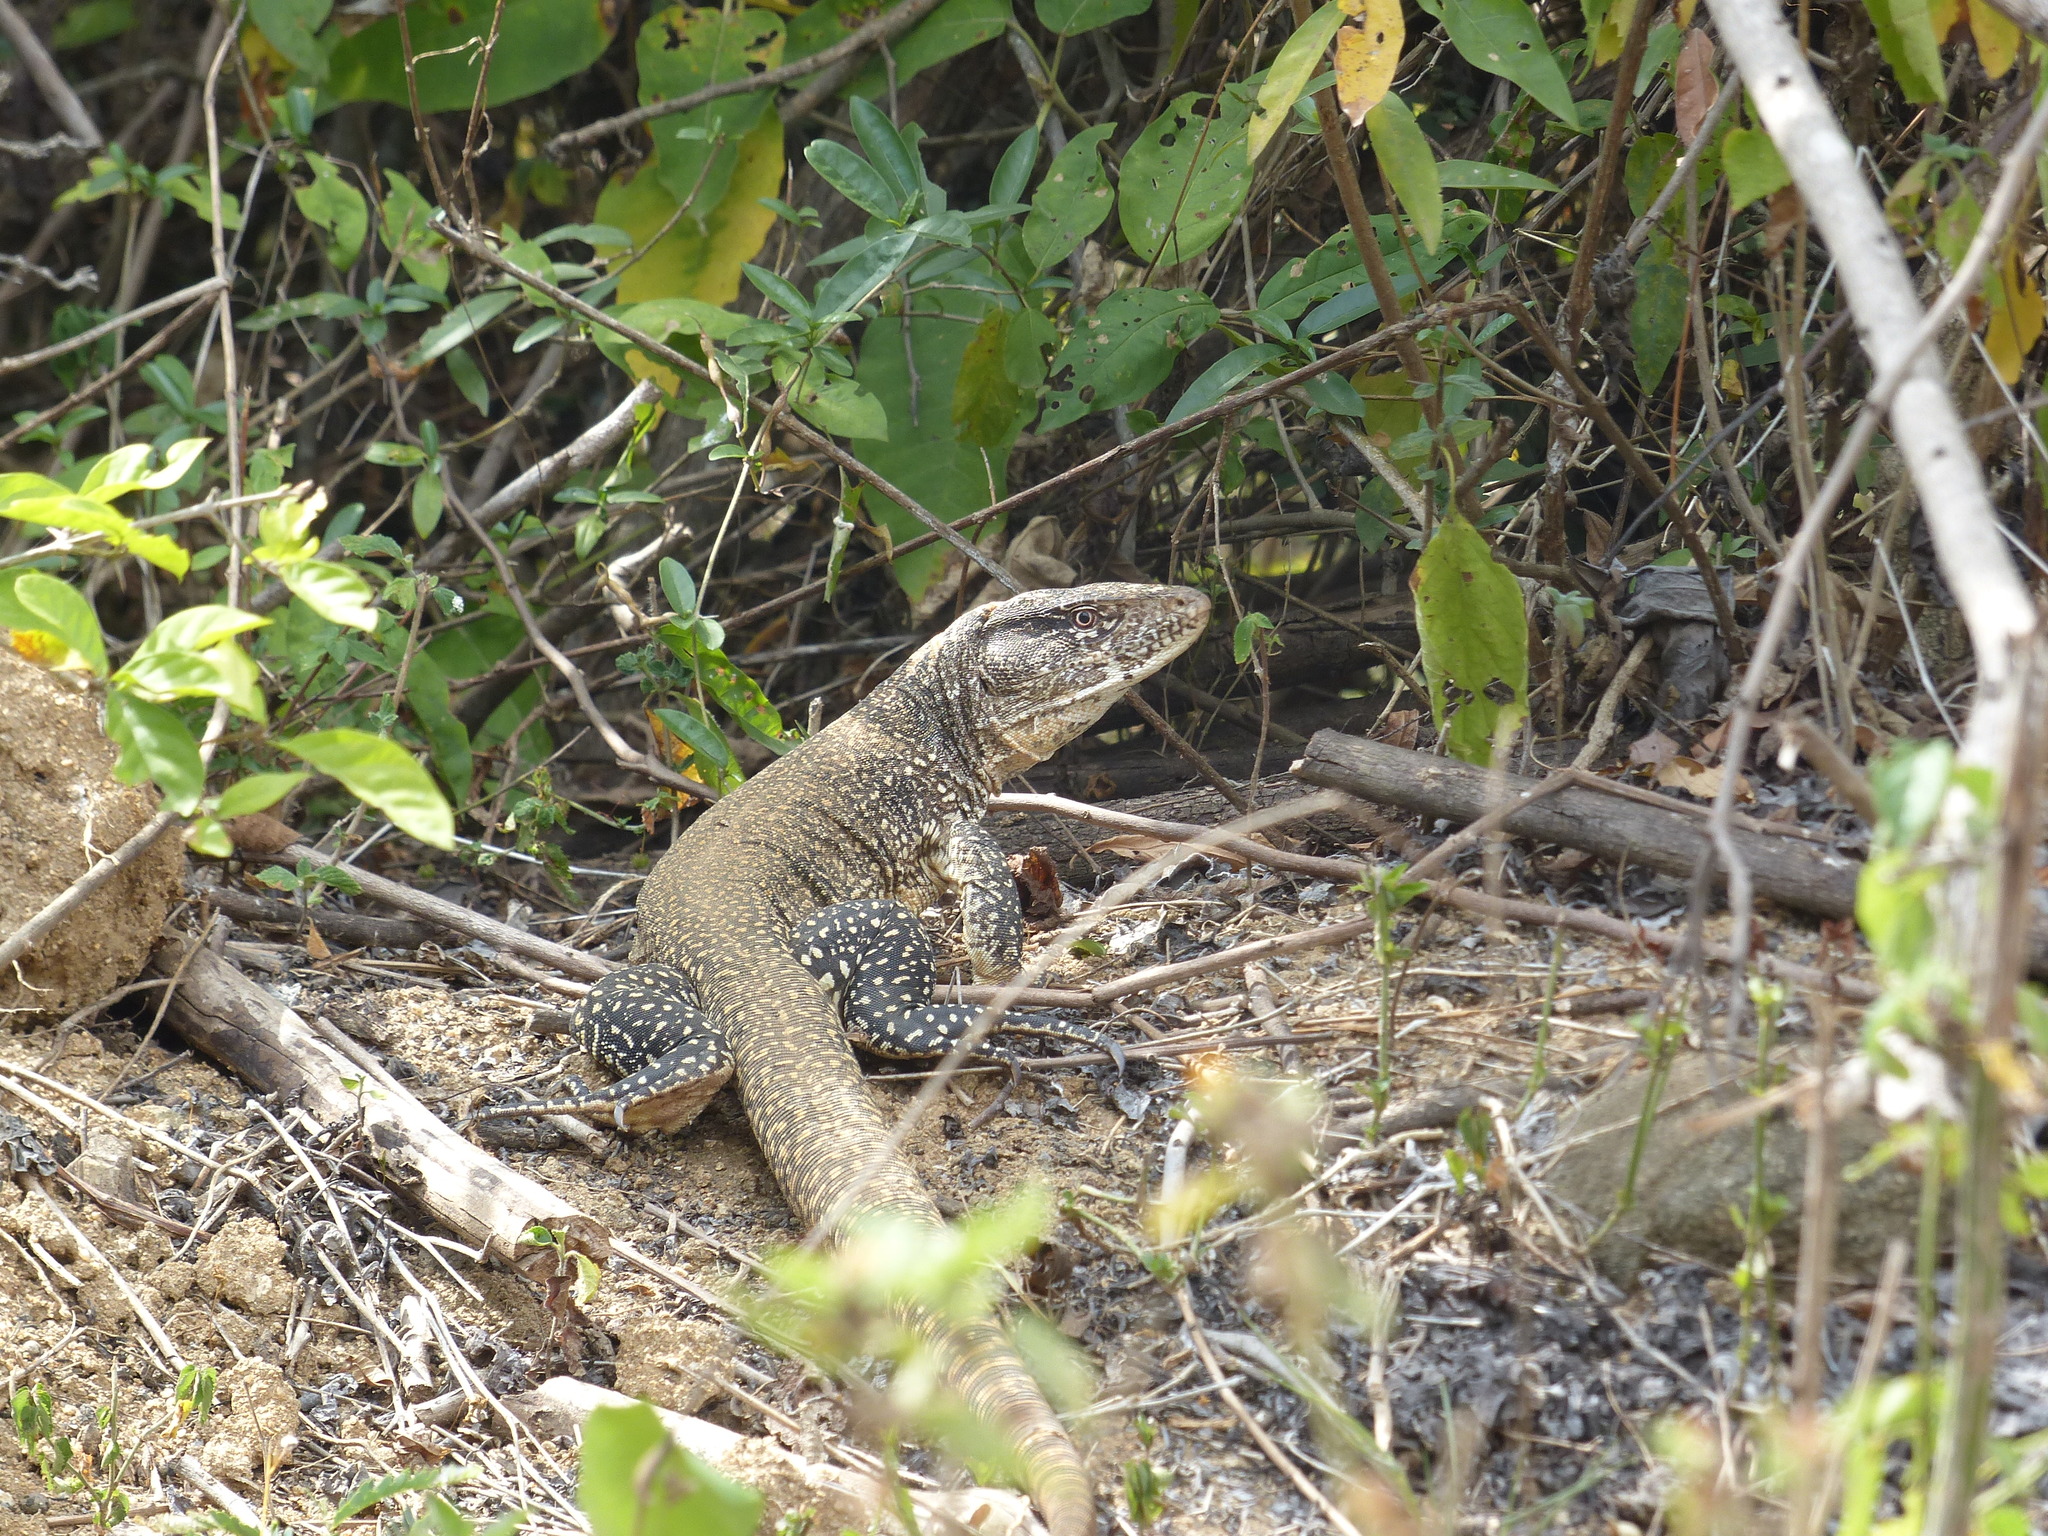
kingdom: Animalia
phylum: Chordata
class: Squamata
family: Teiidae
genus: Callopistes
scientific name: Callopistes flavipunctatus
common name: False monitor
